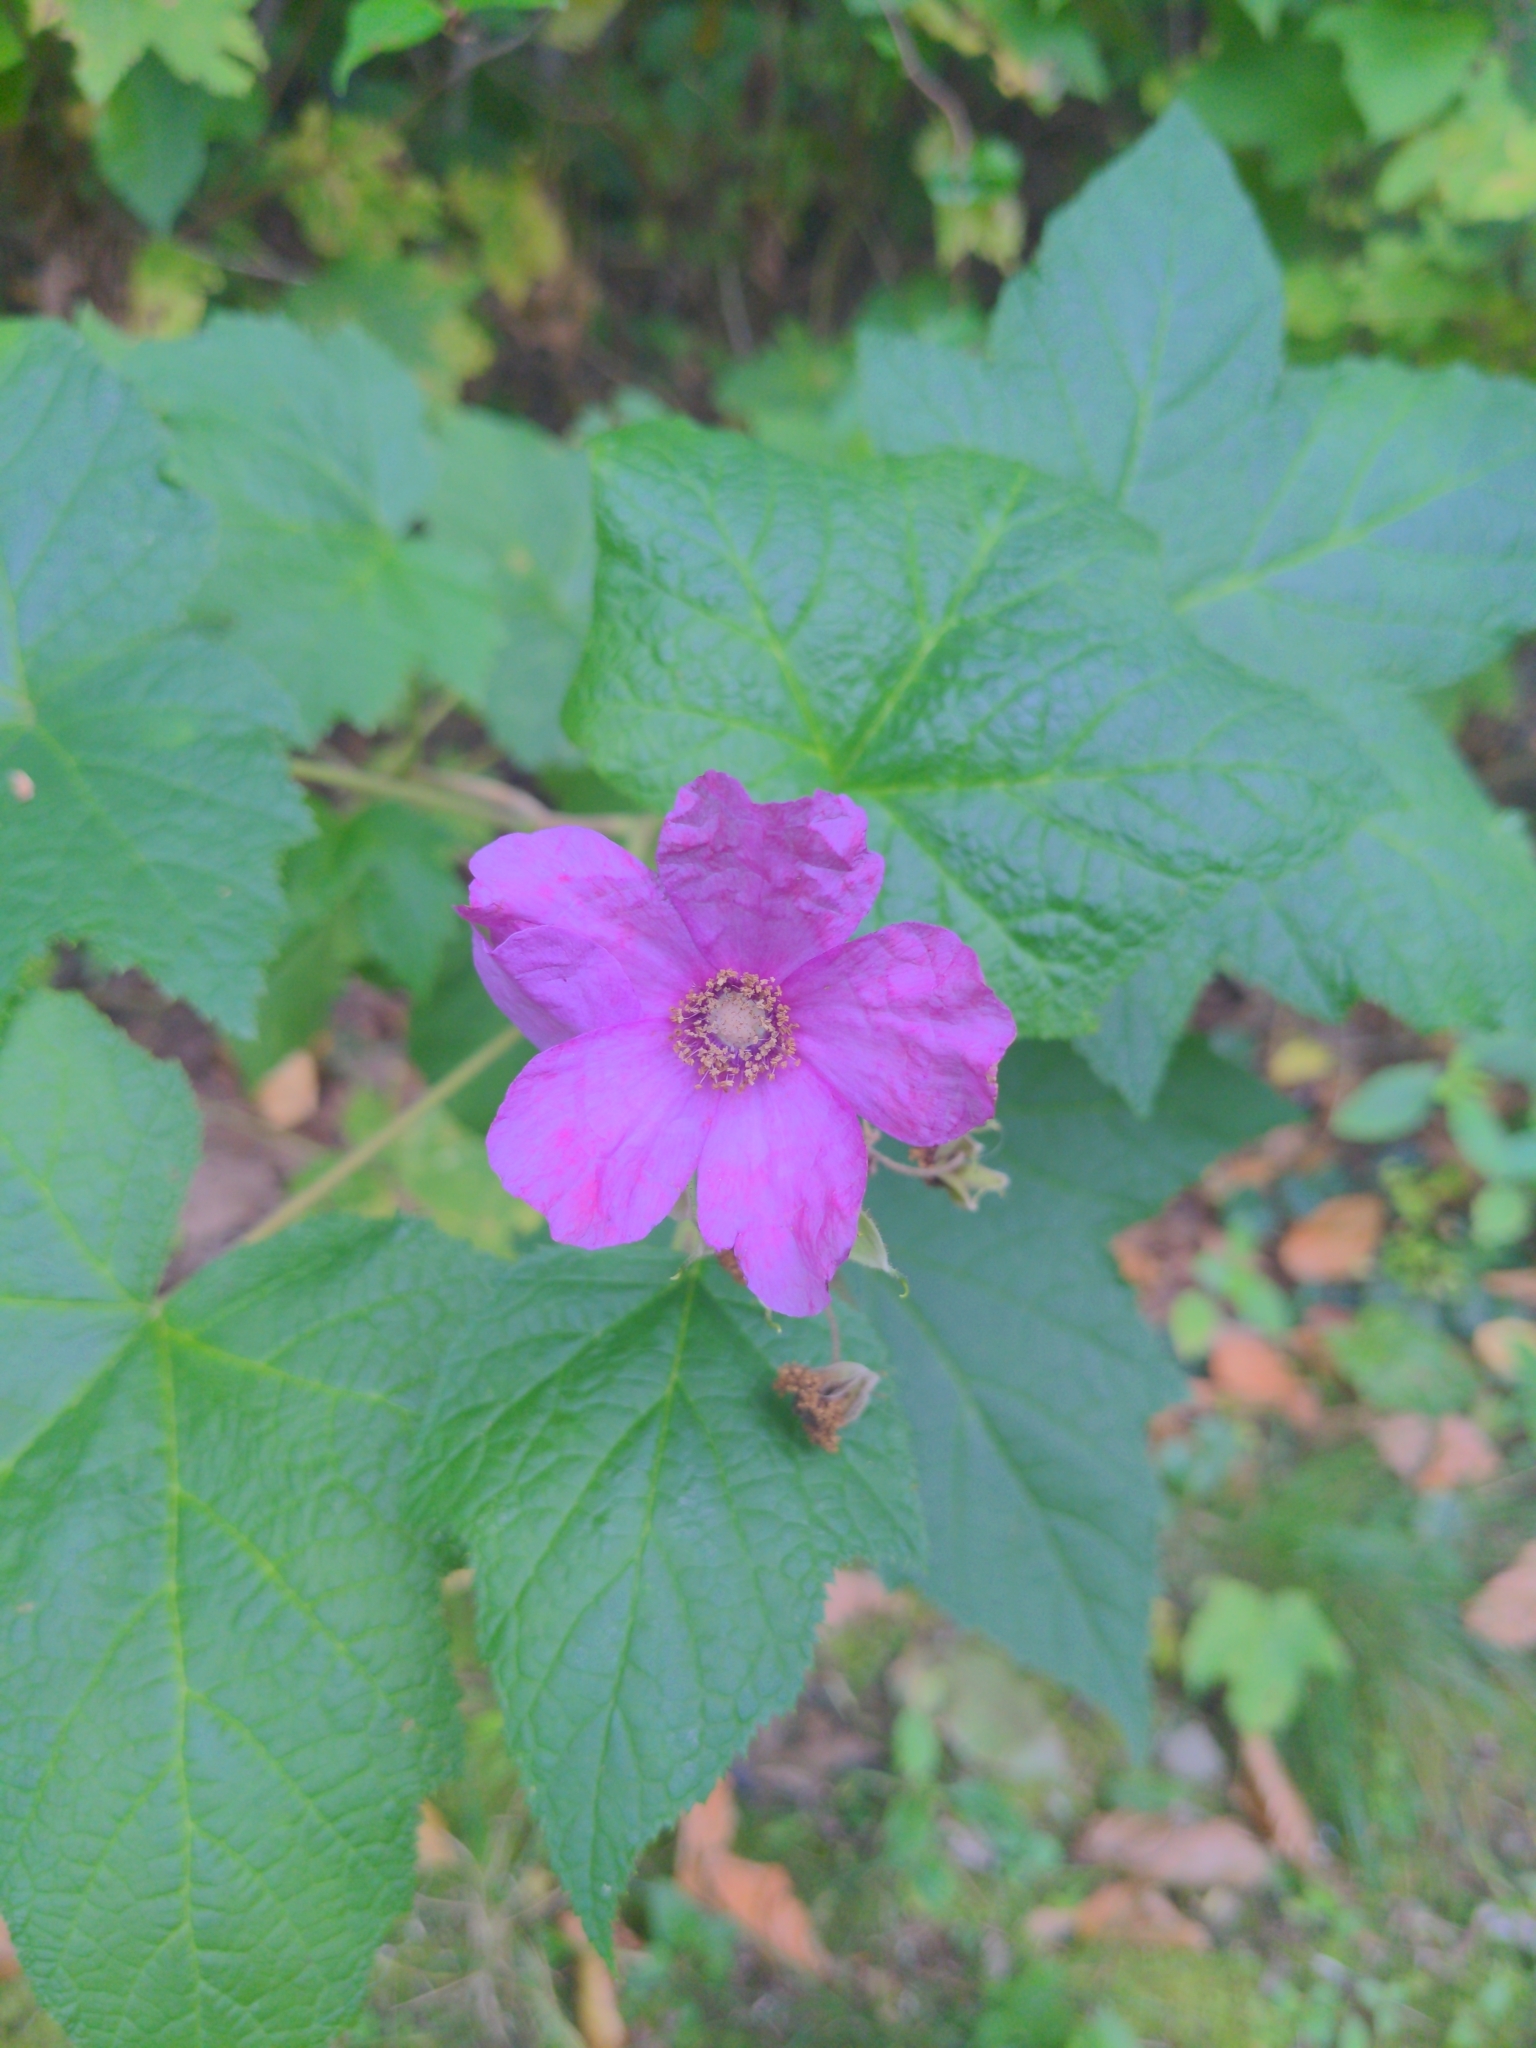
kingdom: Plantae
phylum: Tracheophyta
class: Magnoliopsida
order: Rosales
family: Rosaceae
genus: Rubus
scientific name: Rubus odoratus
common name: Purple-flowered raspberry
